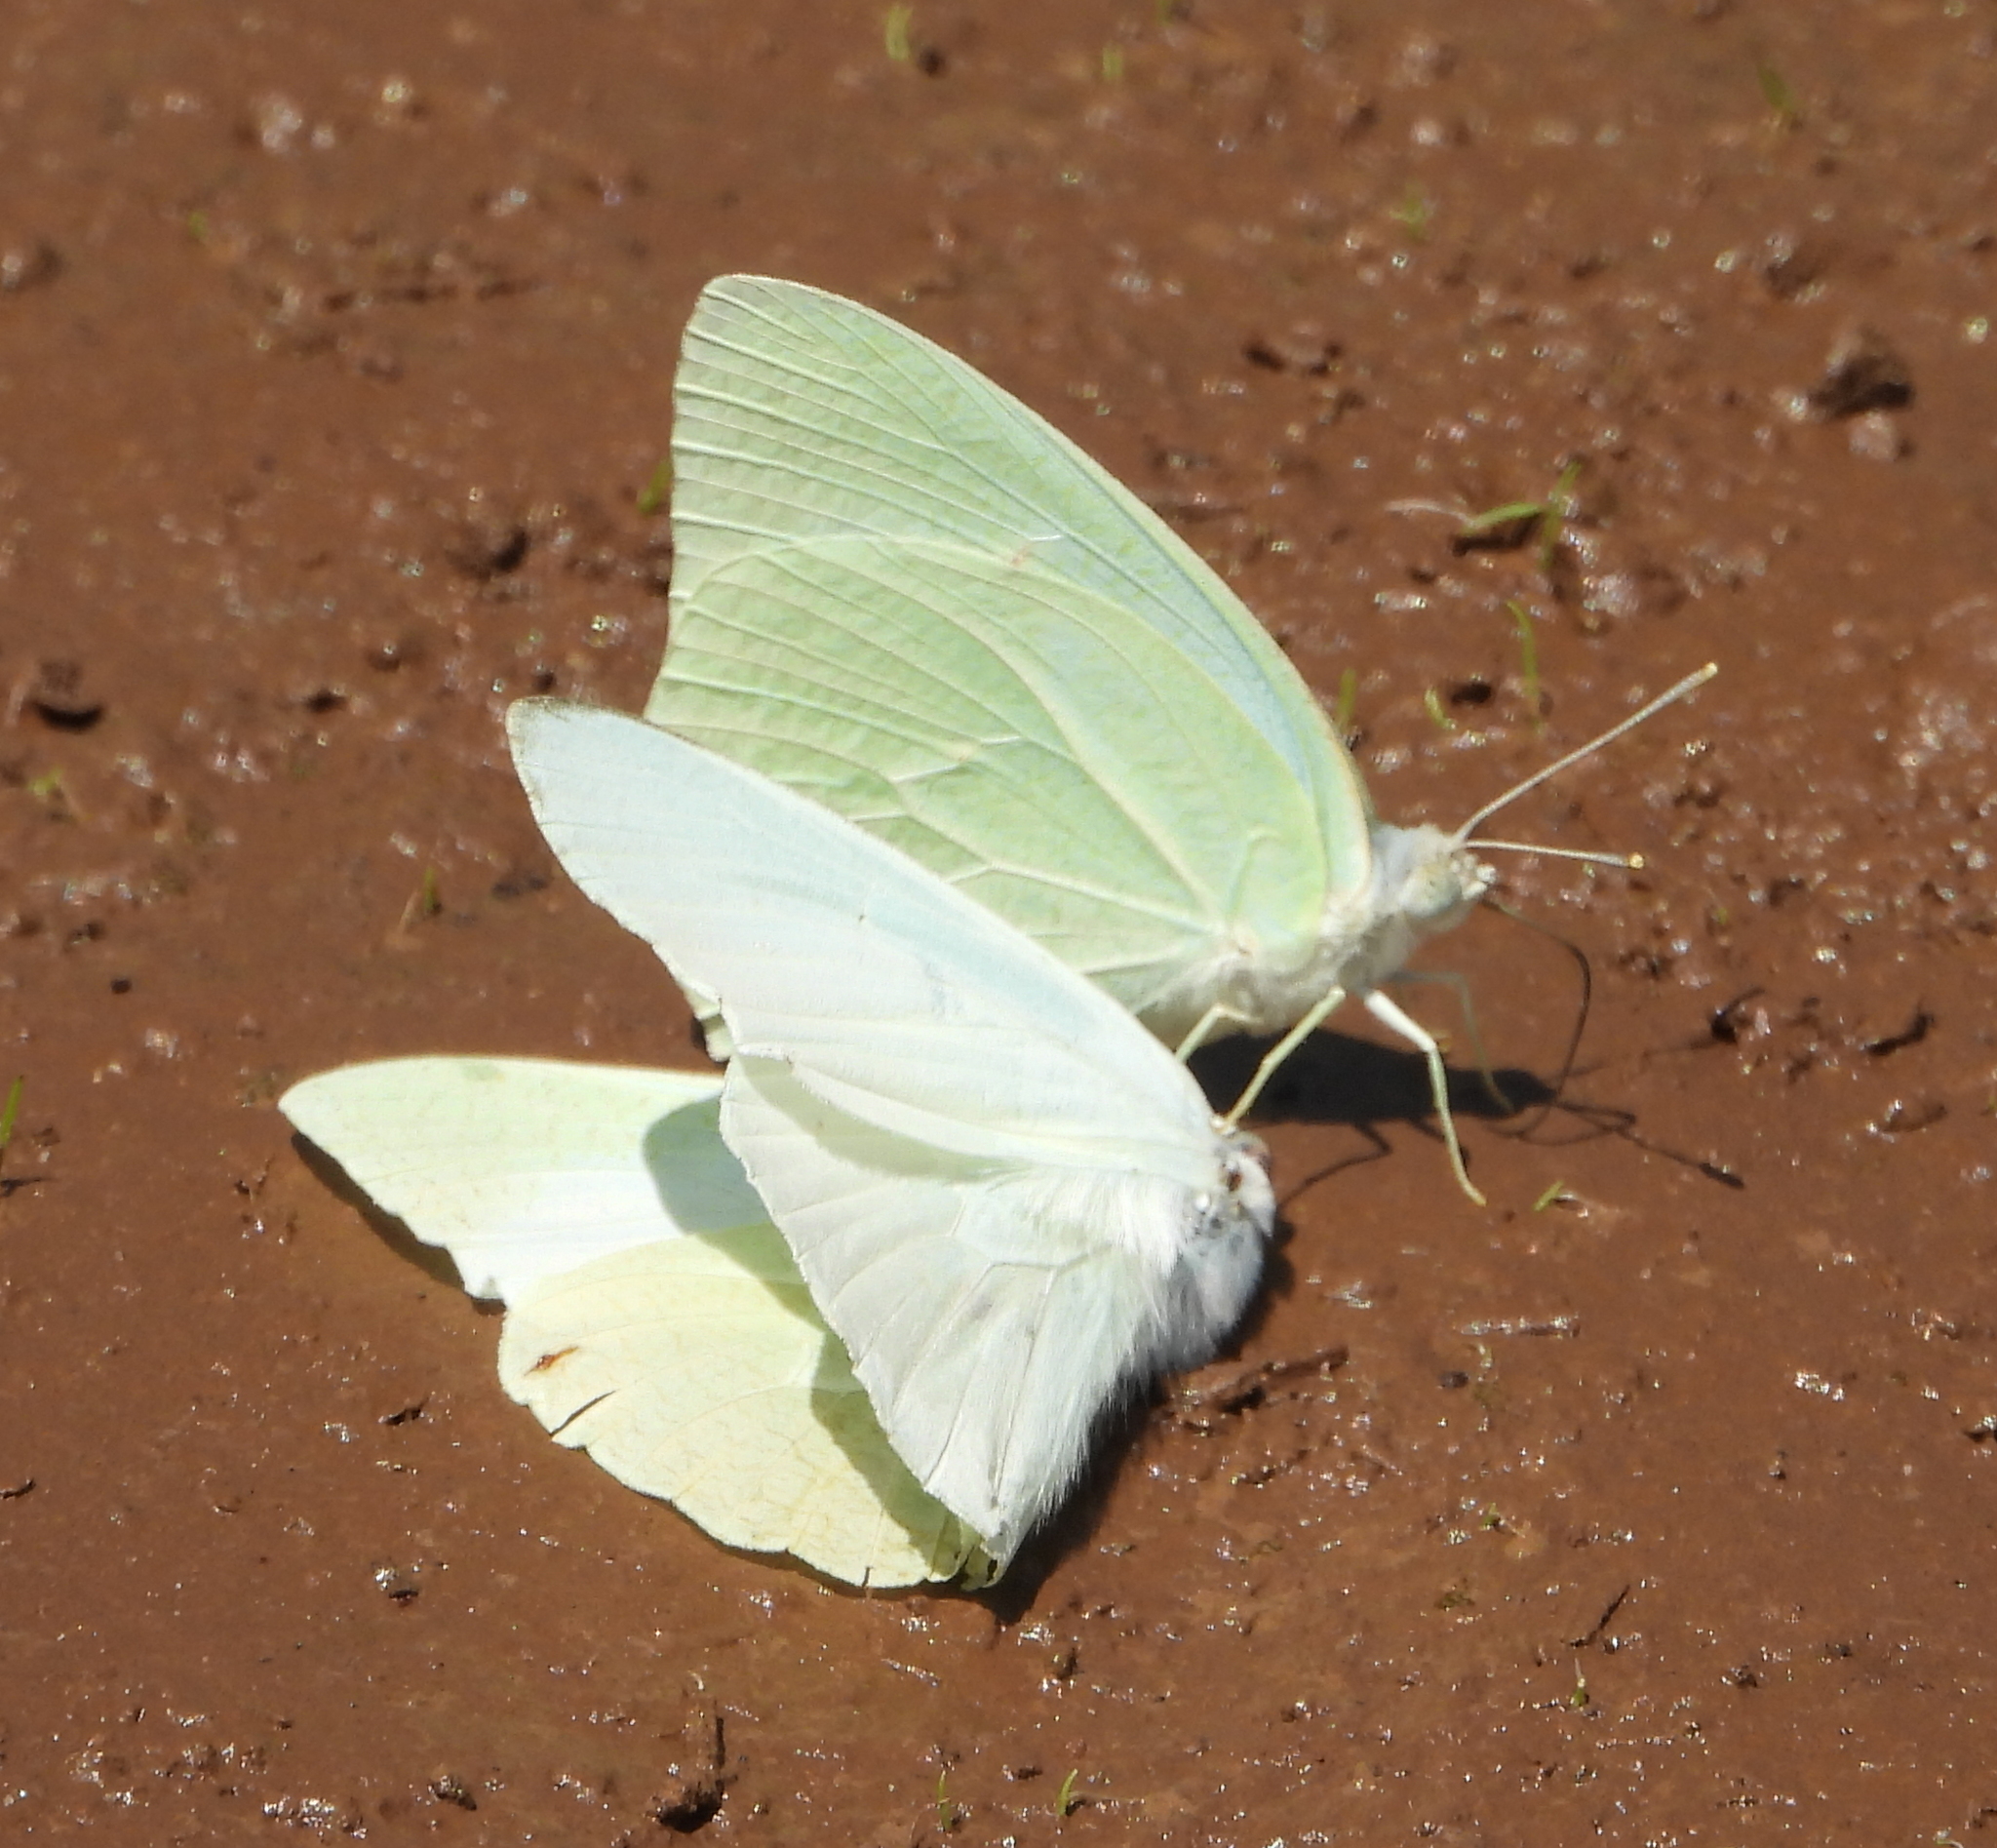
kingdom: Animalia
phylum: Arthropoda
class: Insecta
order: Lepidoptera
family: Pieridae
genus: Catopsilia
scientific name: Catopsilia florella
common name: African migrant
